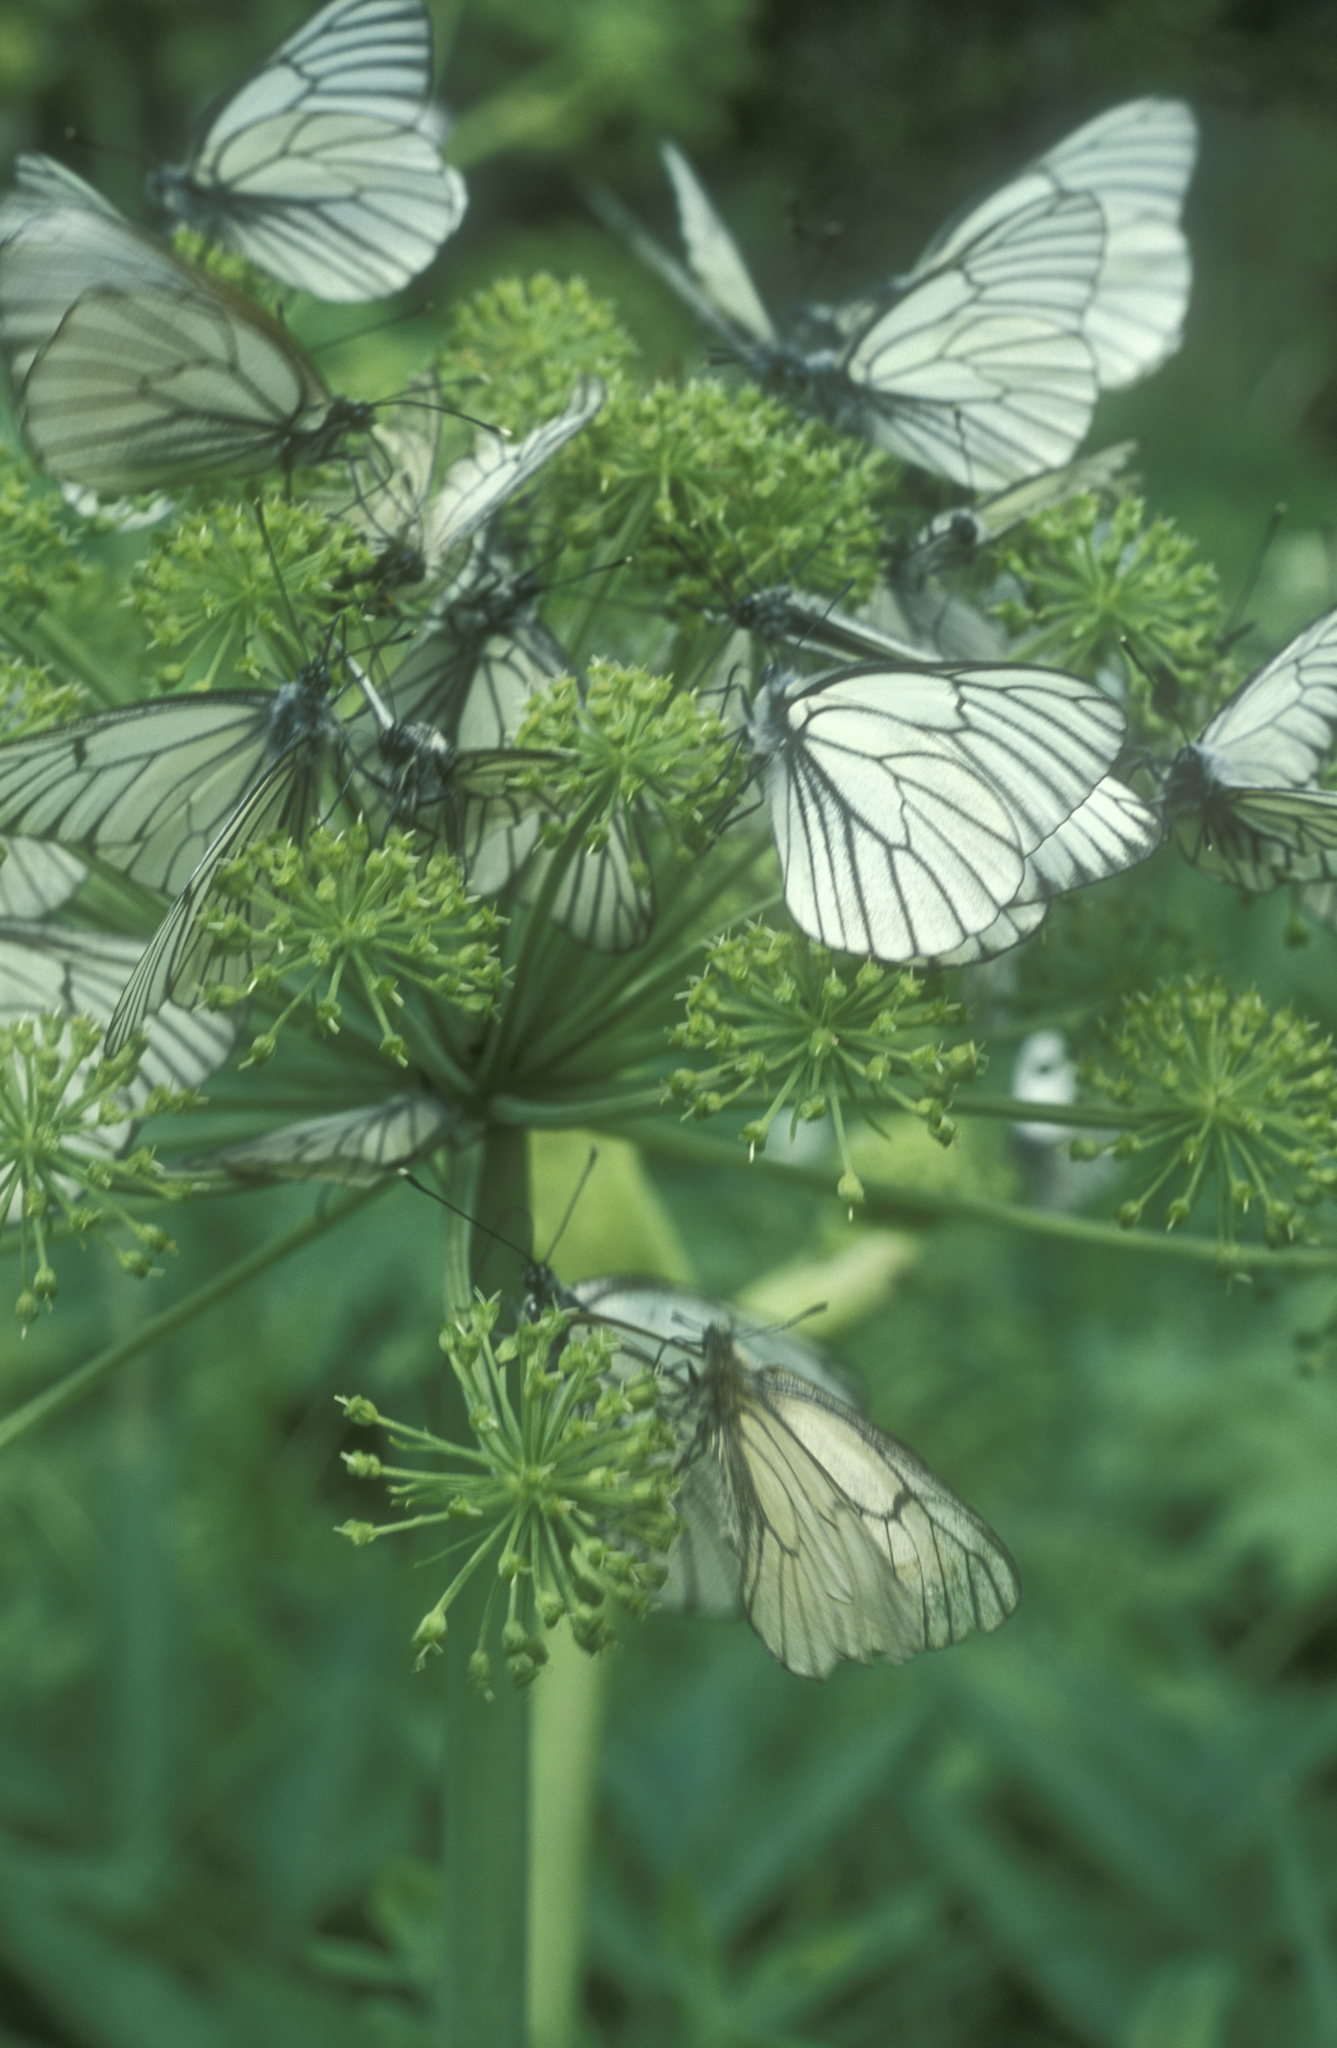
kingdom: Animalia
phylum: Arthropoda
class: Insecta
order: Lepidoptera
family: Papilionidae
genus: Parnassius
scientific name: Parnassius stubbendorfii
